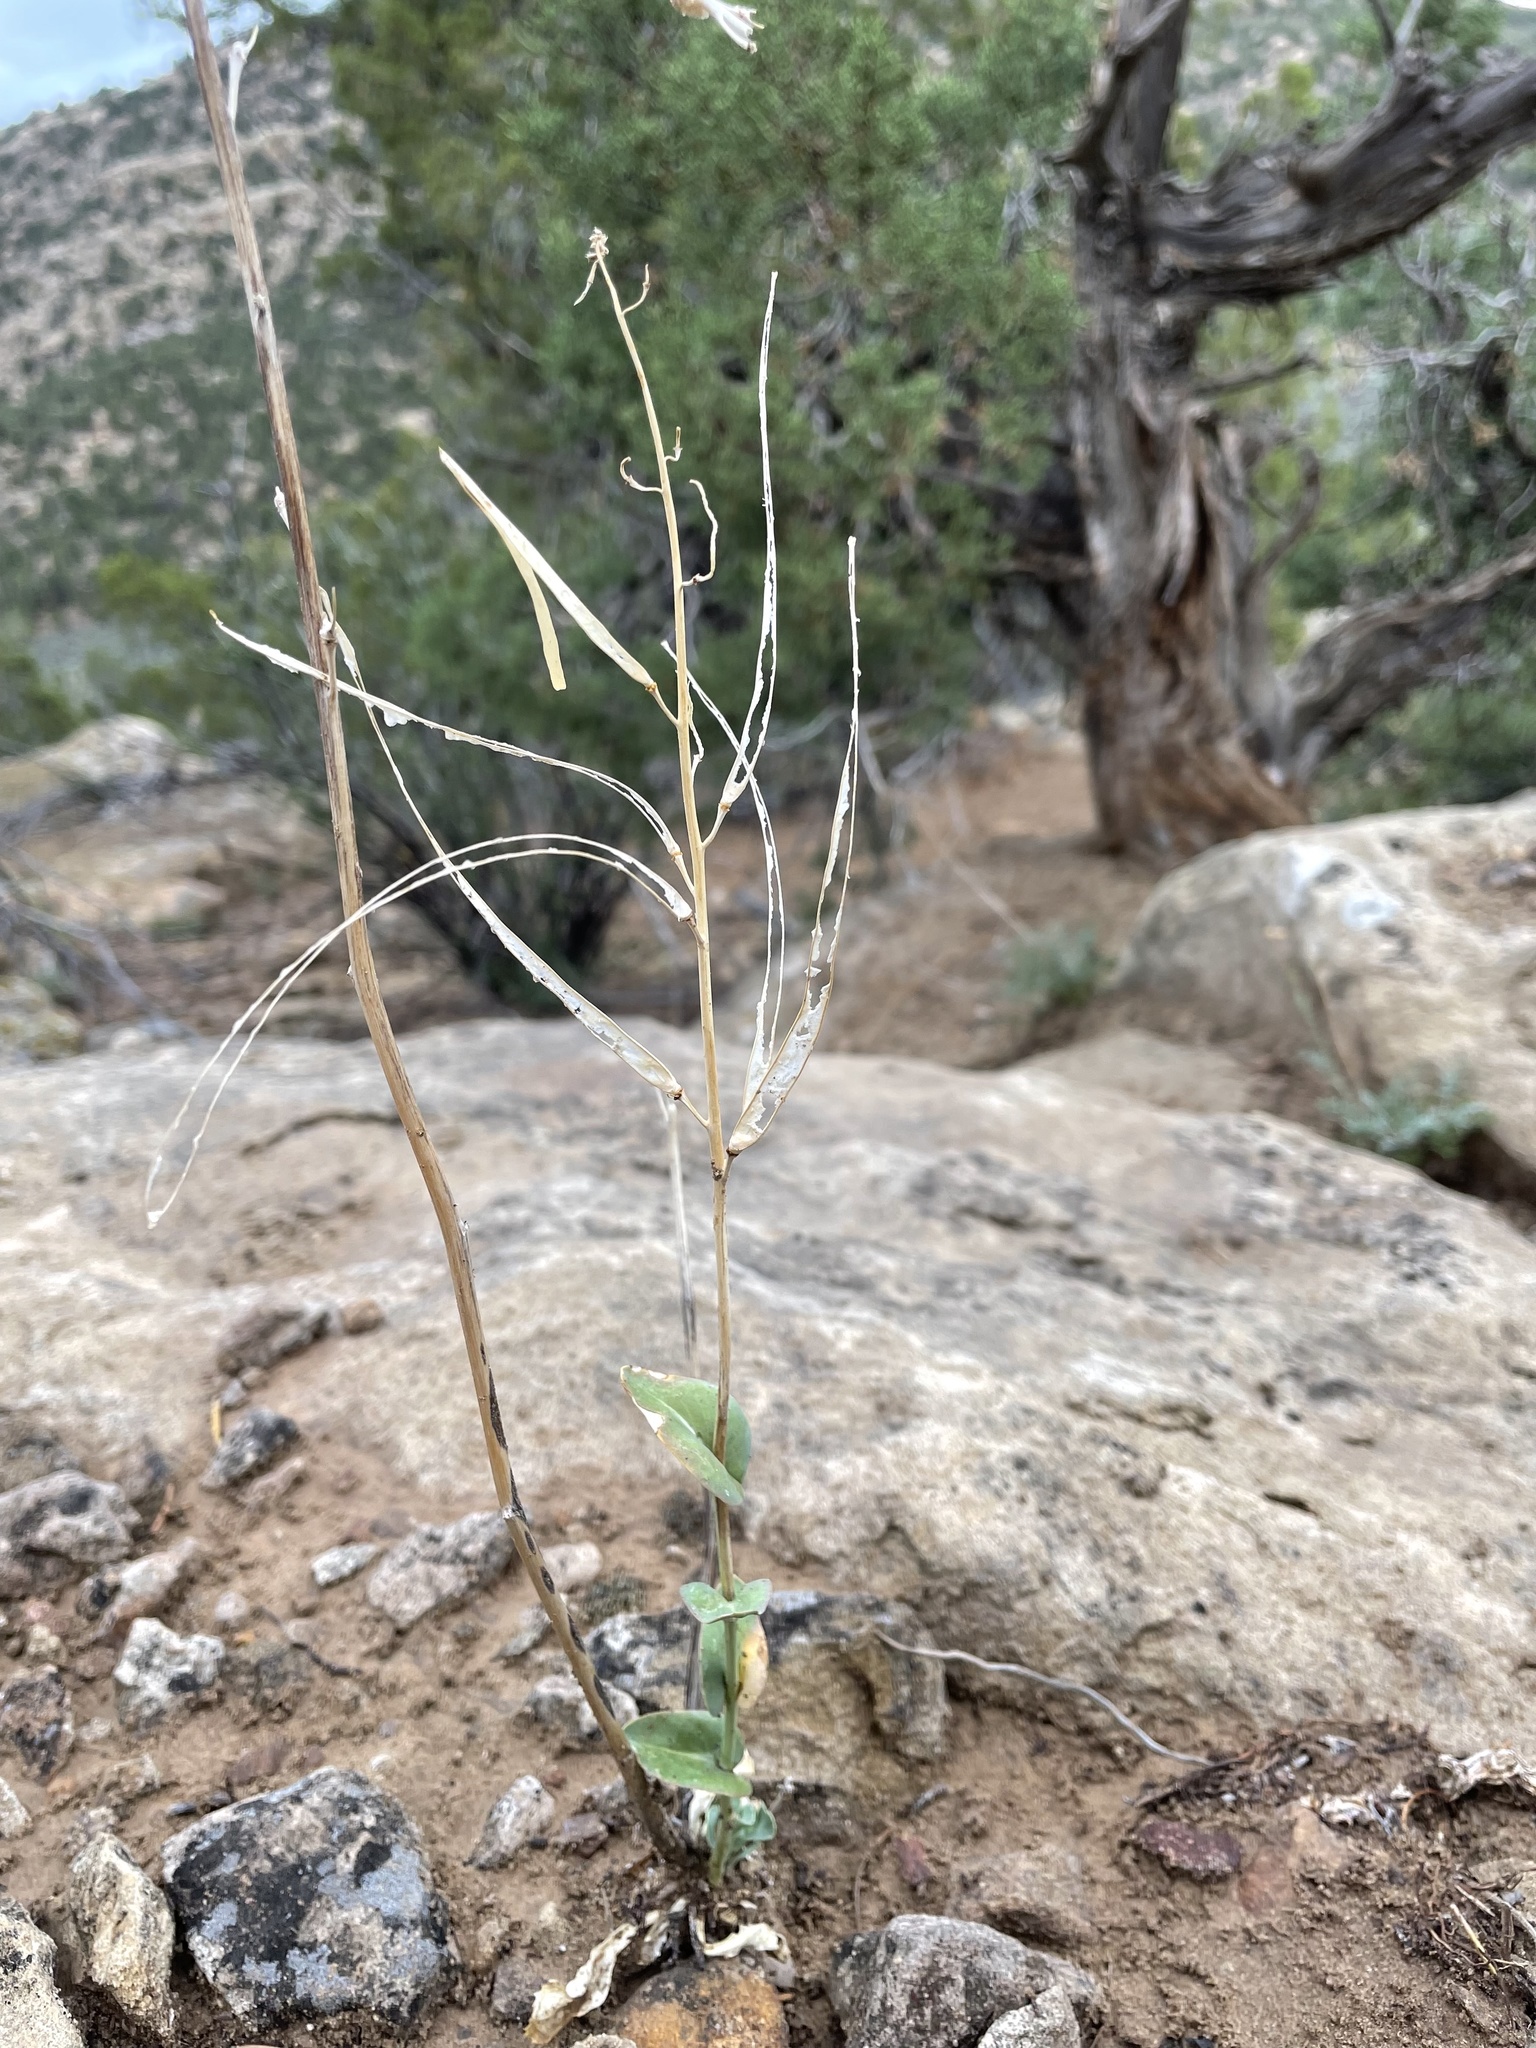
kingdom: Plantae
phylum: Tracheophyta
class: Magnoliopsida
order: Brassicales
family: Brassicaceae
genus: Streptanthus
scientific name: Streptanthus cordatus
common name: Heart-leaf jewel-flower
